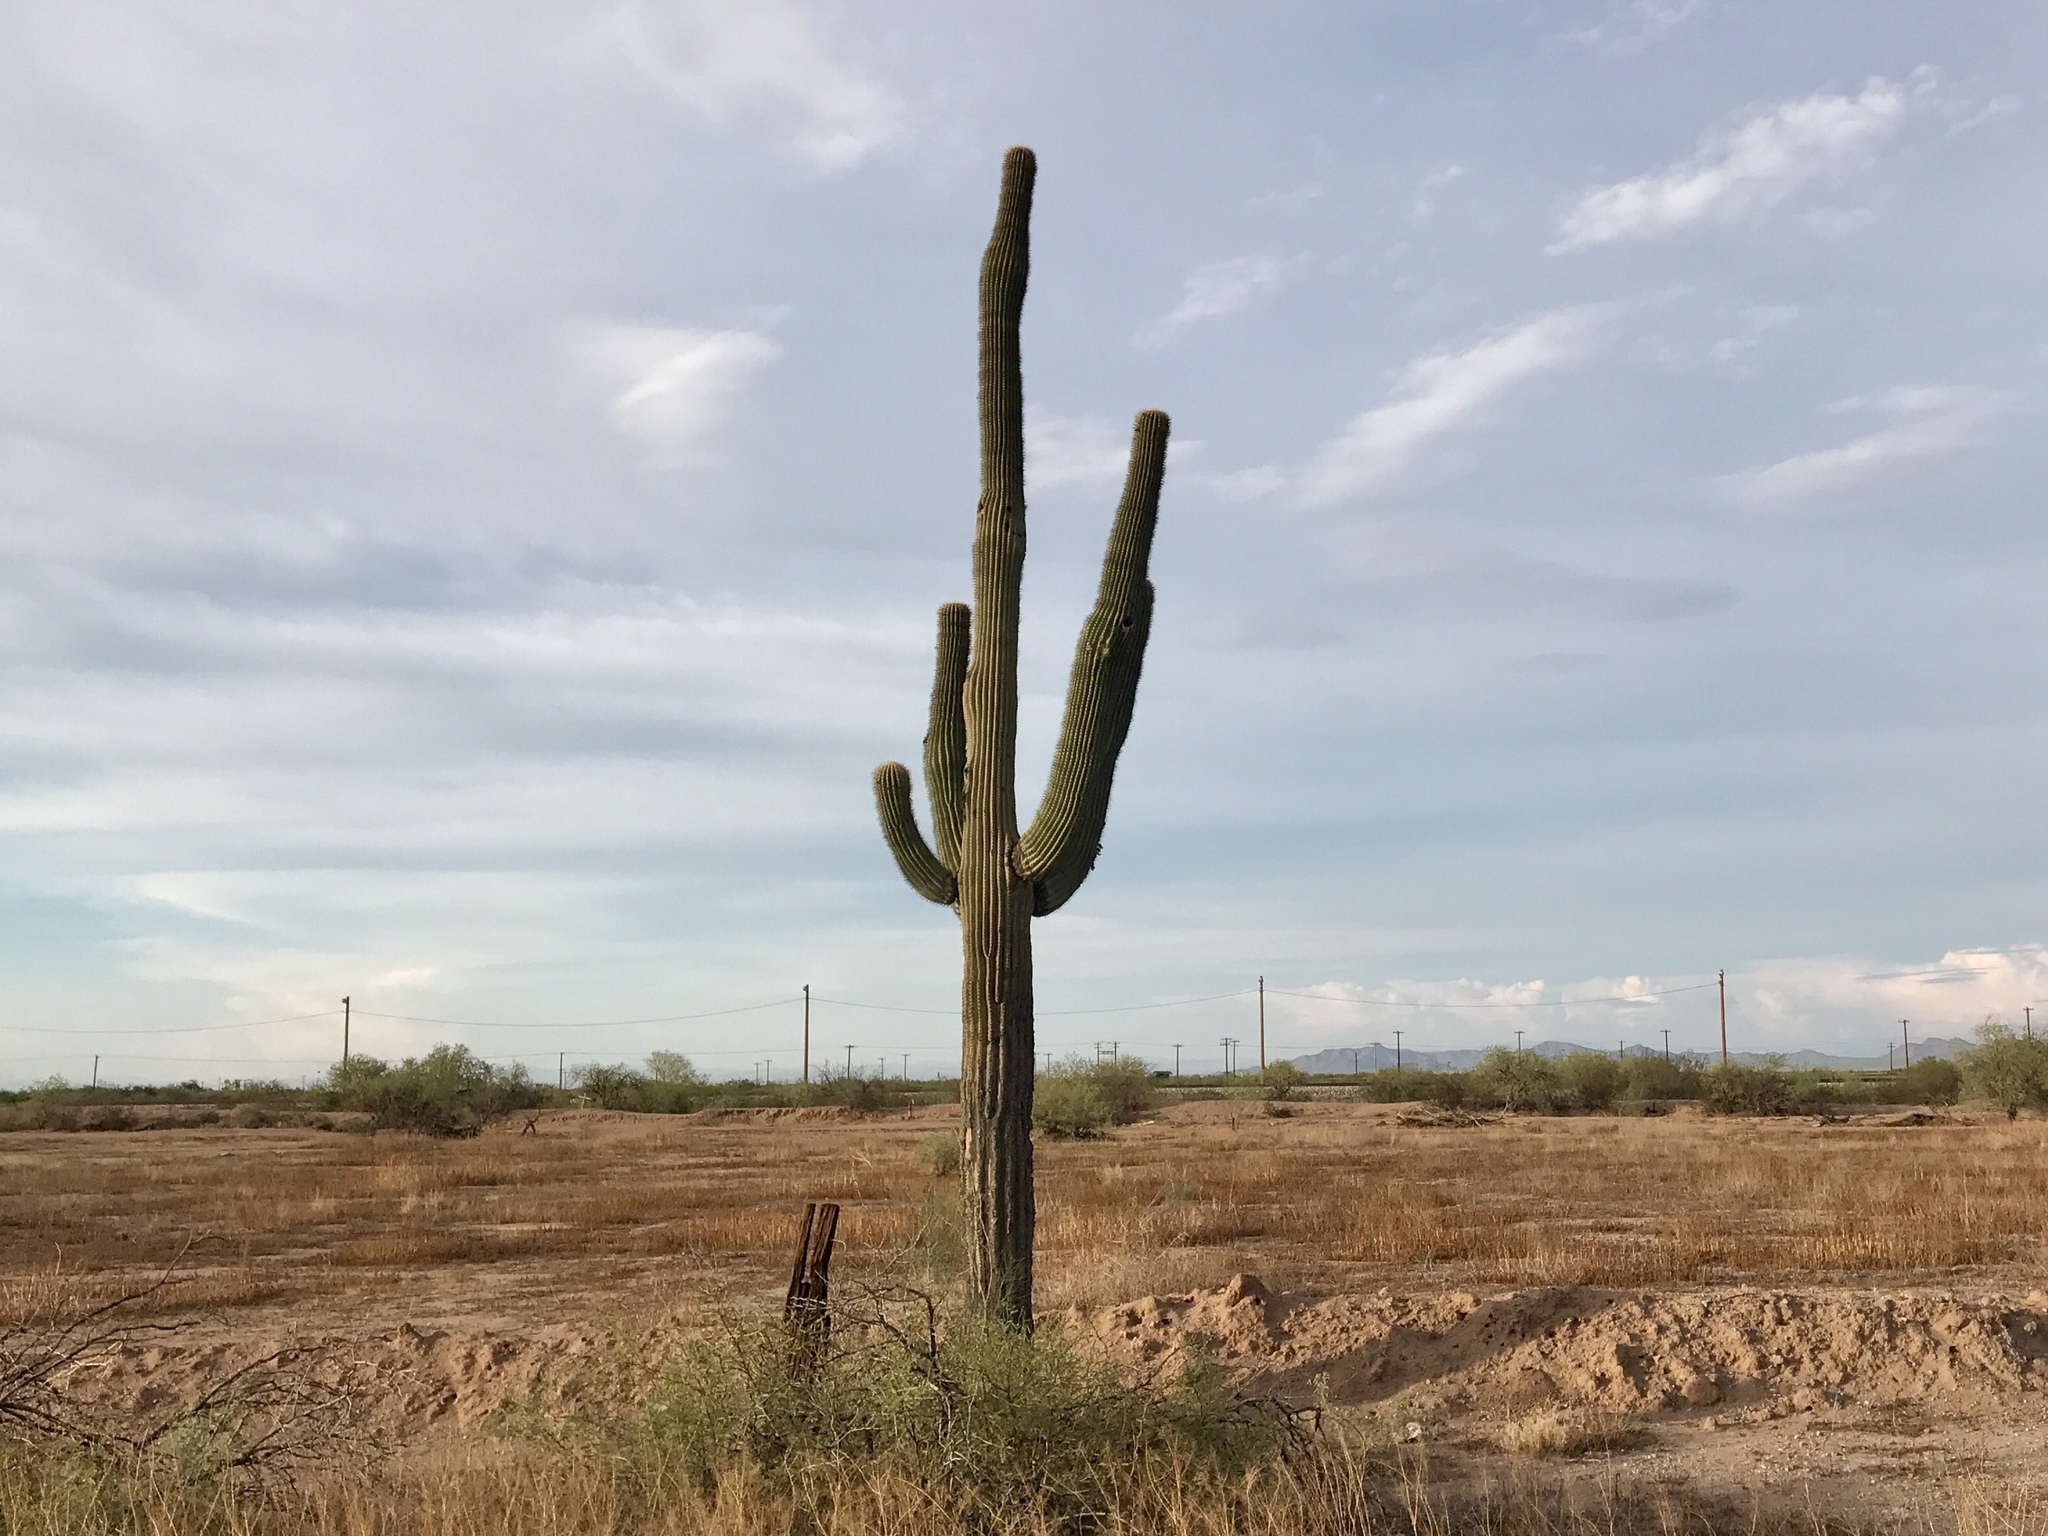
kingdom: Plantae
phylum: Tracheophyta
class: Magnoliopsida
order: Caryophyllales
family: Cactaceae
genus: Carnegiea
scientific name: Carnegiea gigantea
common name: Saguaro
